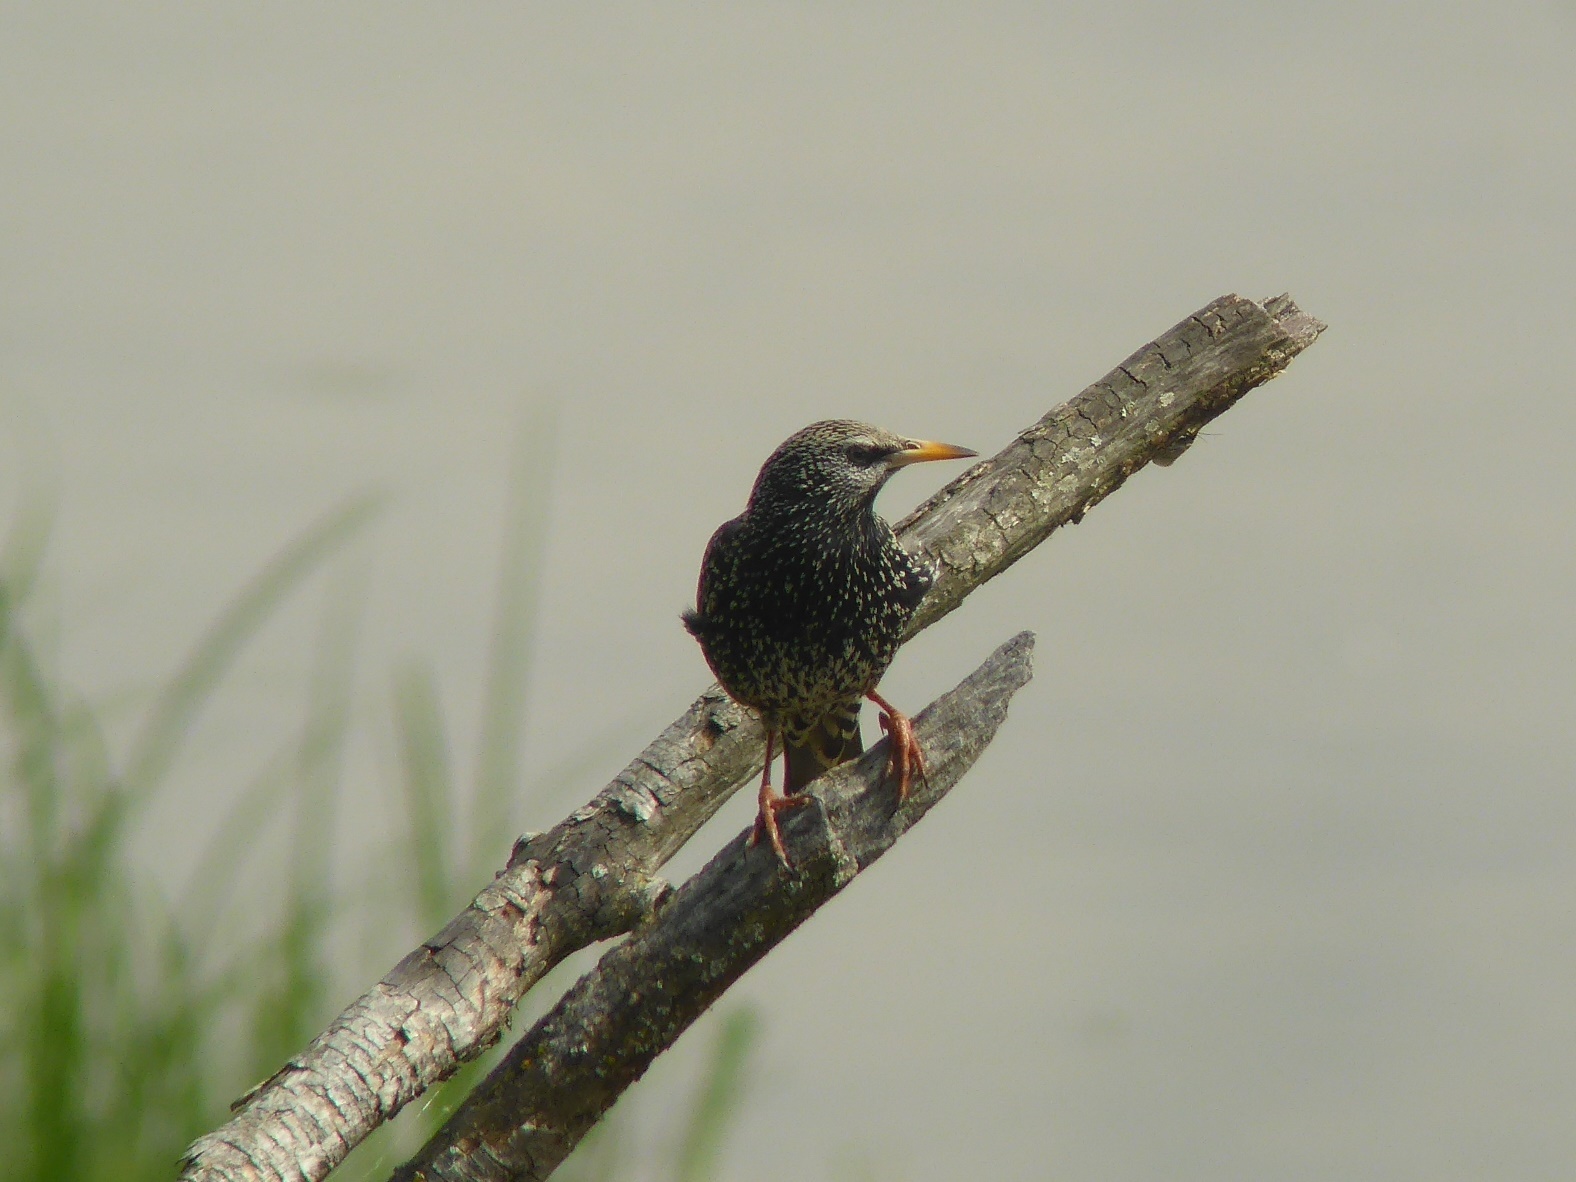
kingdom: Animalia
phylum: Chordata
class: Aves
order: Passeriformes
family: Sturnidae
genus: Sturnus
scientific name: Sturnus vulgaris
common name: Common starling
